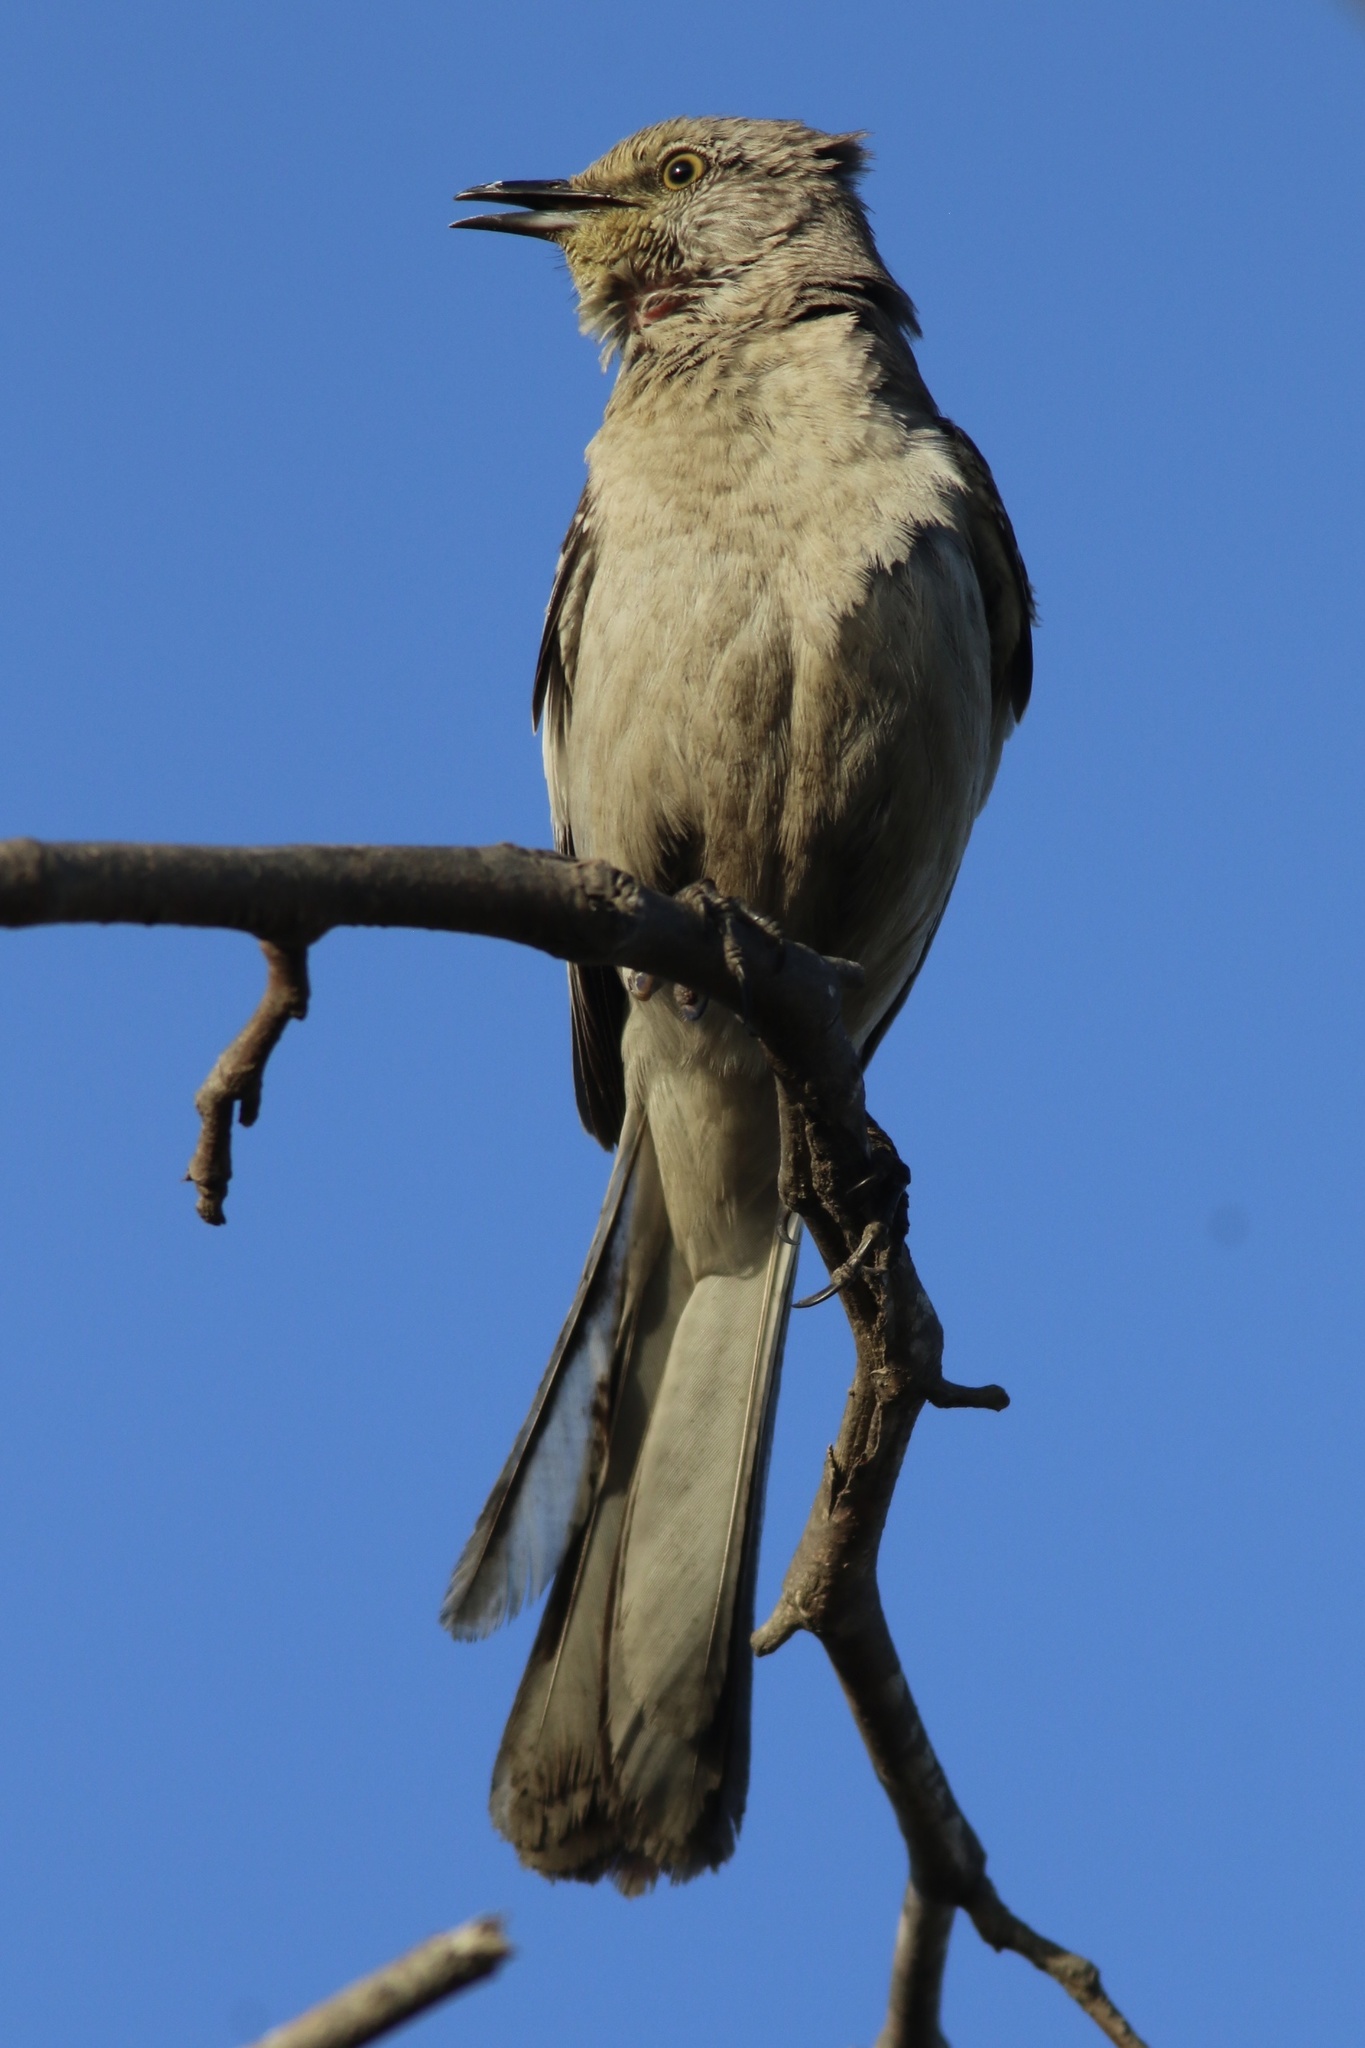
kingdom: Animalia
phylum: Chordata
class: Aves
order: Passeriformes
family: Mimidae
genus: Mimus
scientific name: Mimus polyglottos
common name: Northern mockingbird
